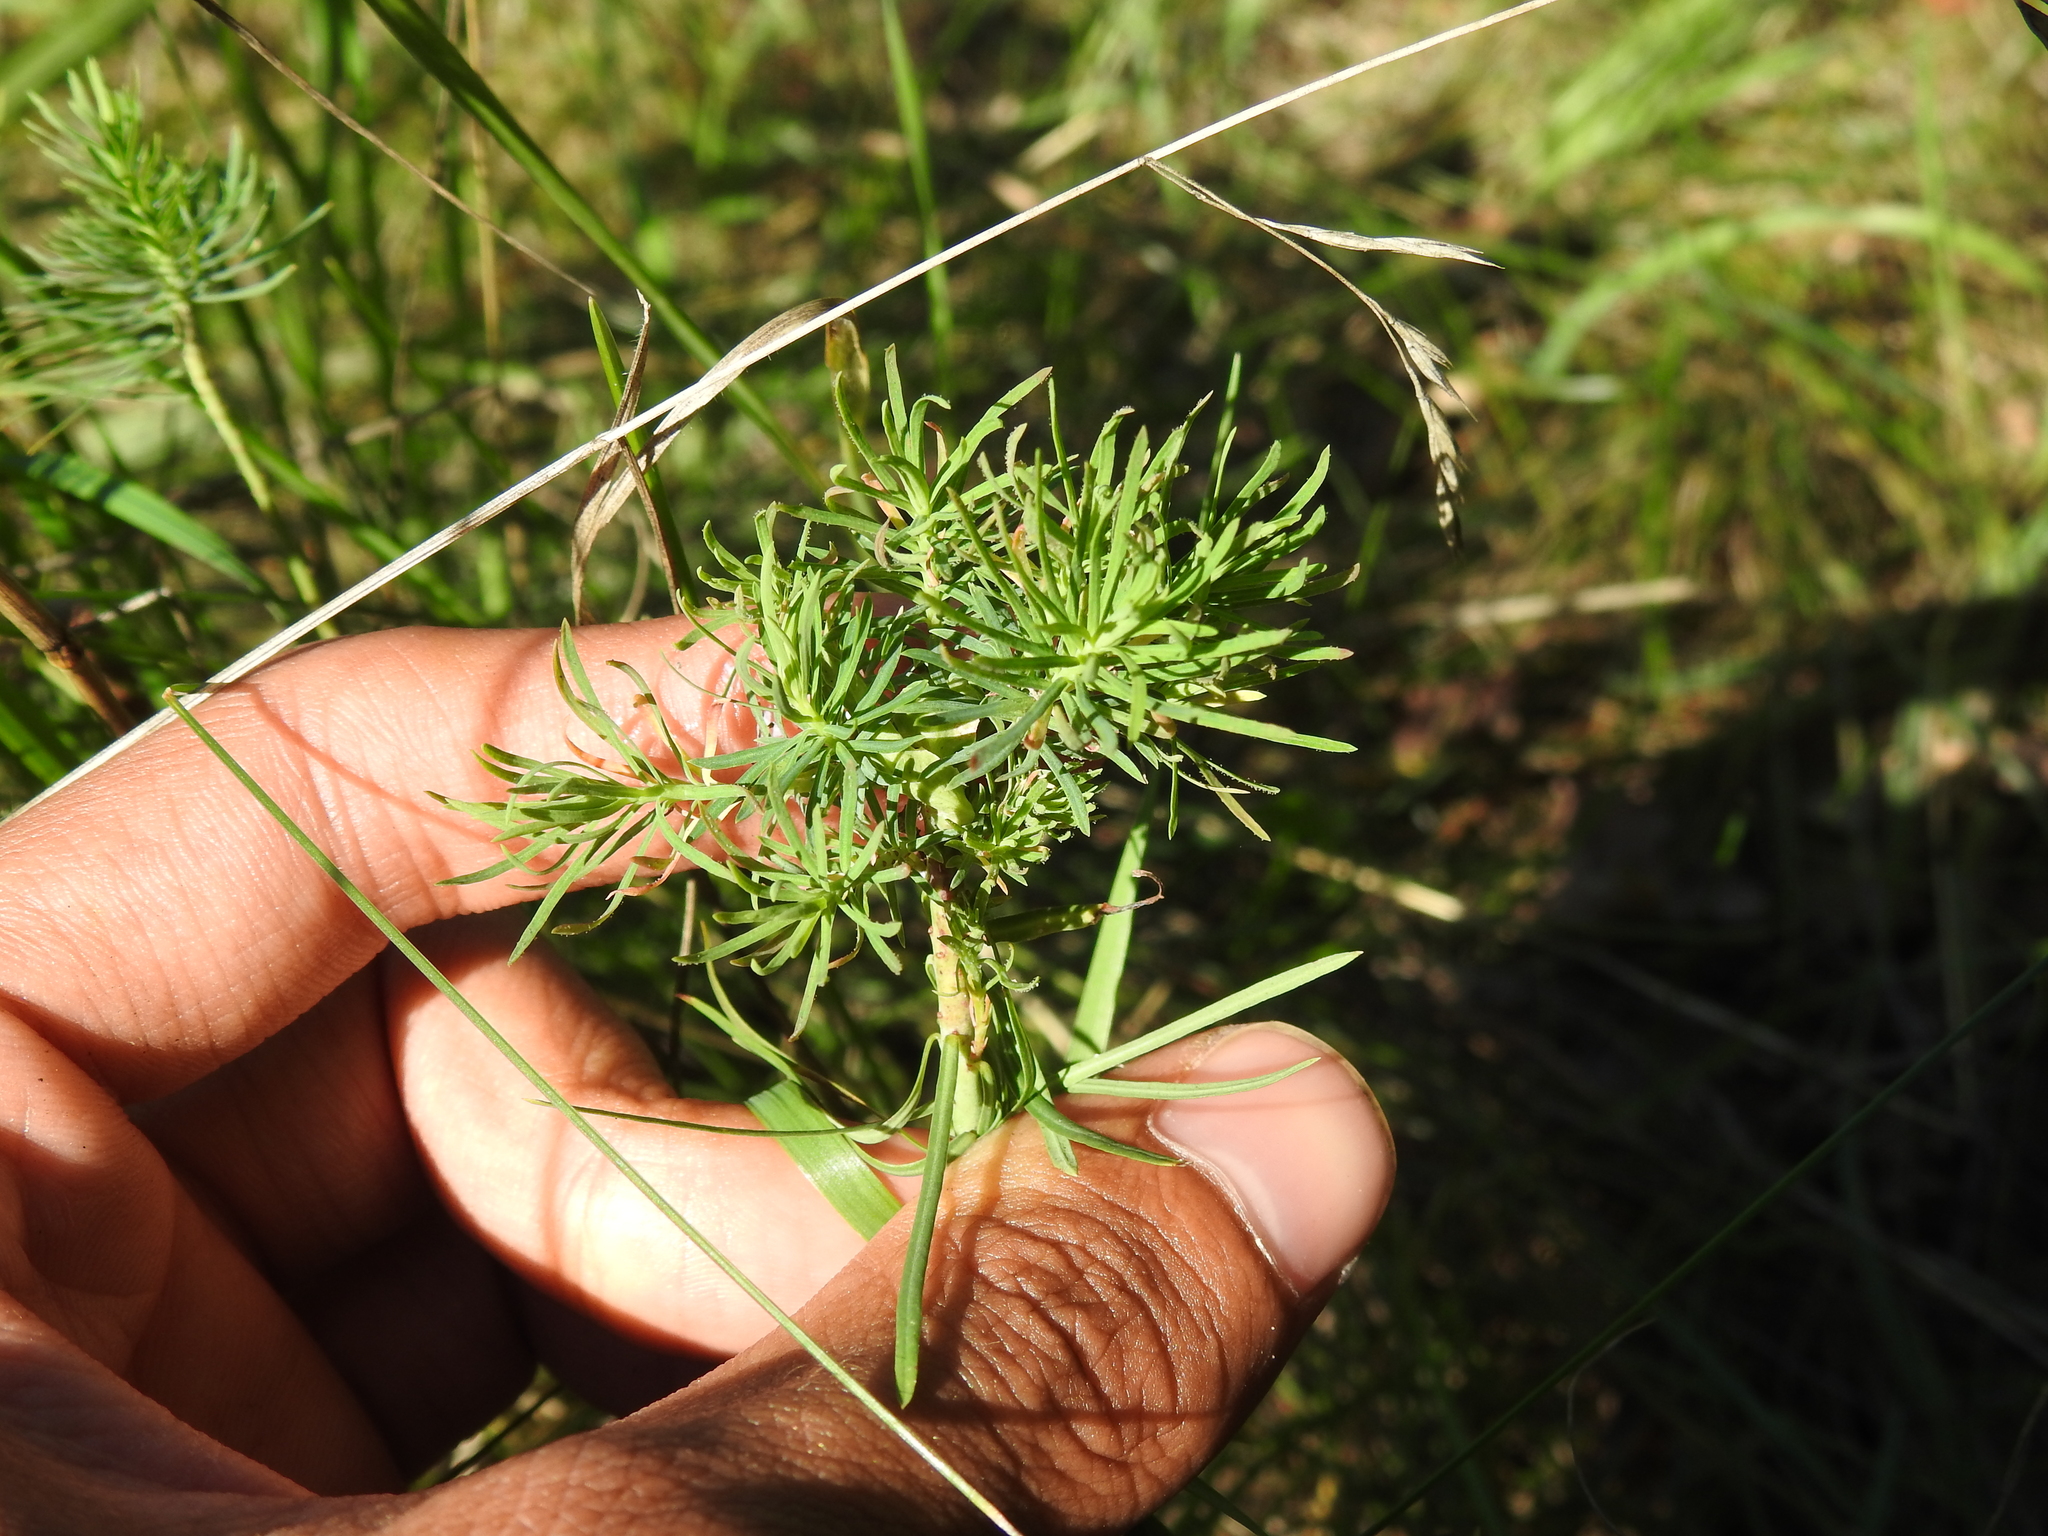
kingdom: Plantae
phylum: Tracheophyta
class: Magnoliopsida
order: Malpighiales
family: Euphorbiaceae
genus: Euphorbia
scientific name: Euphorbia cyparissias
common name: Cypress spurge
